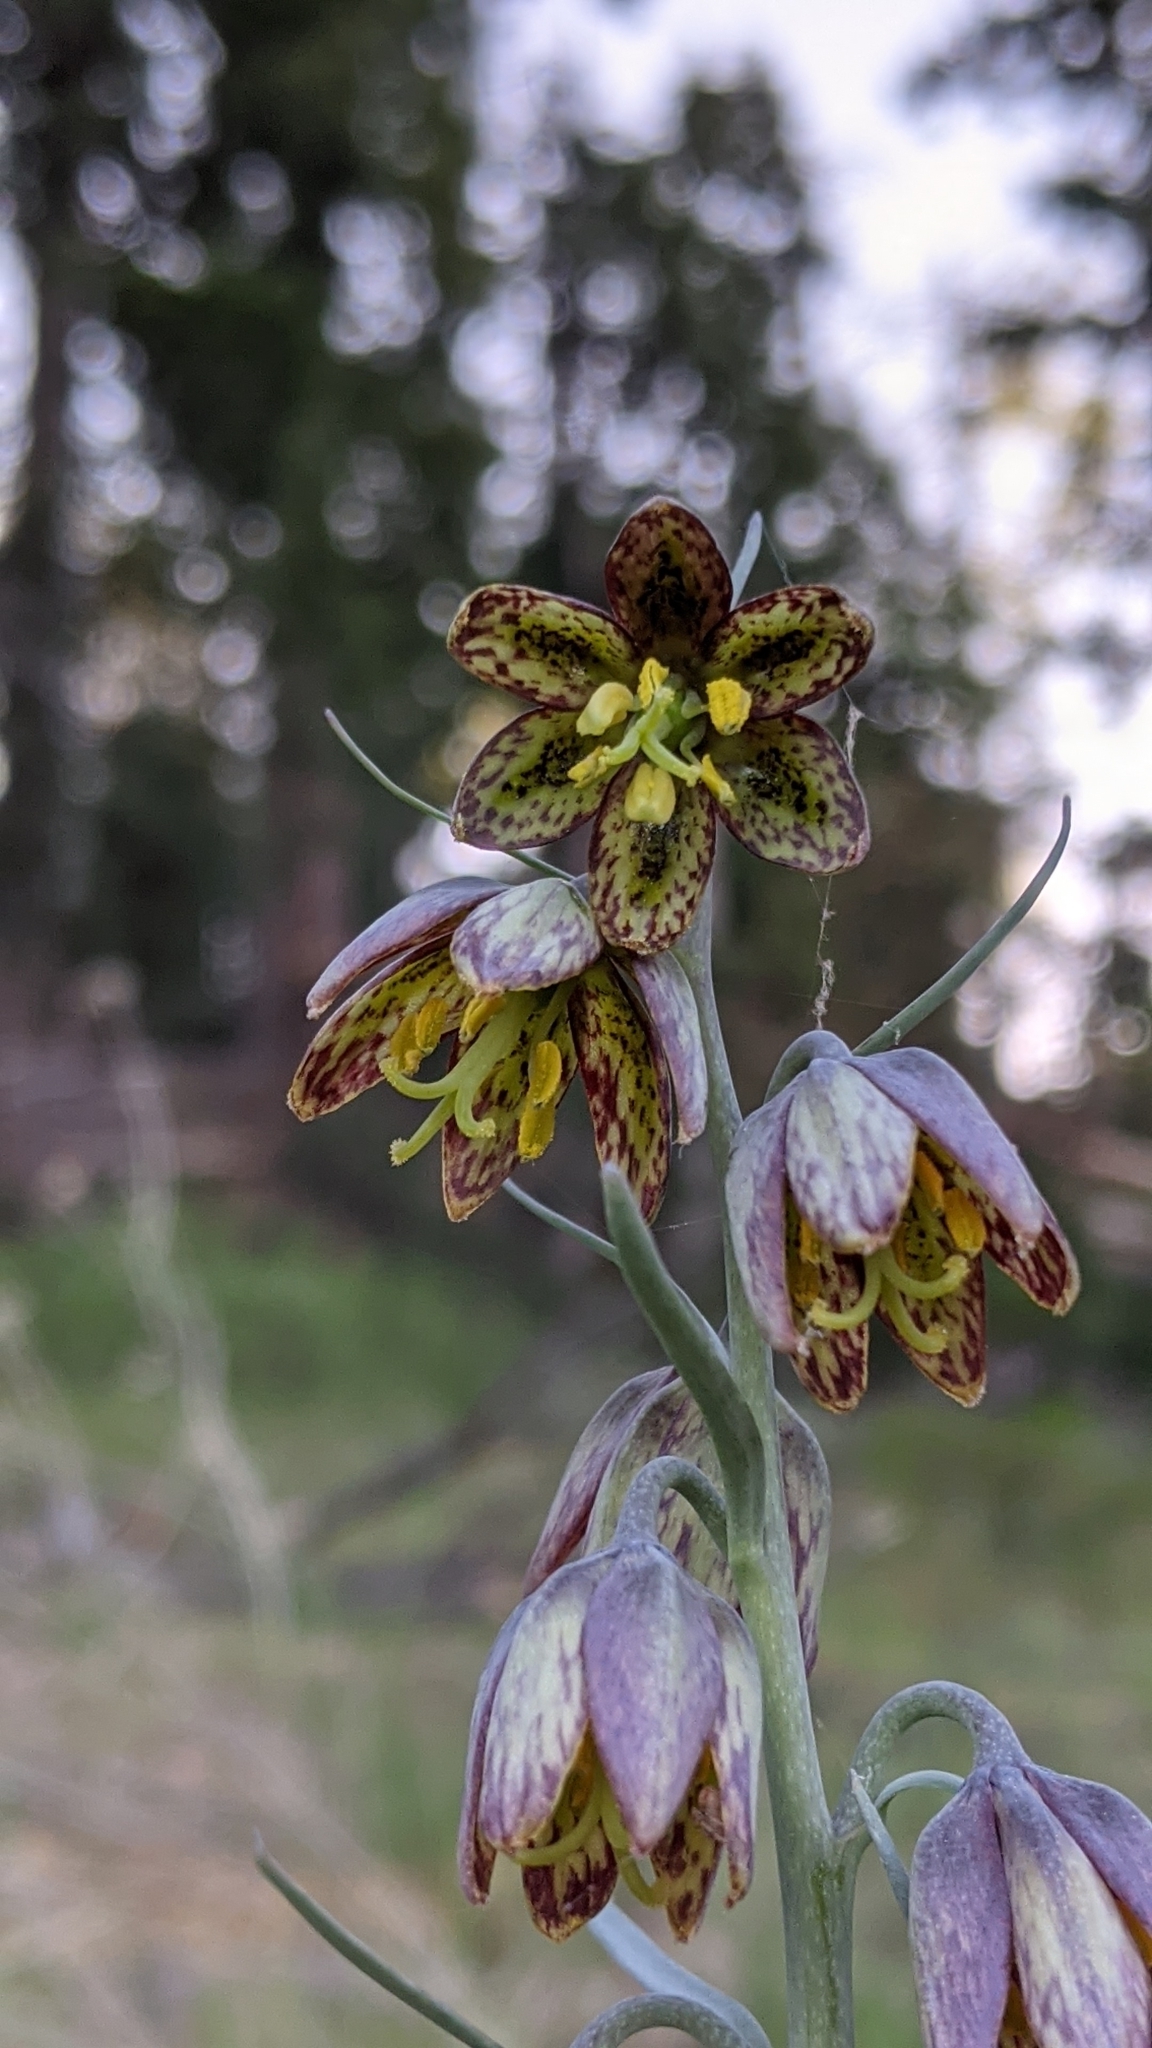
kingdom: Plantae
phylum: Tracheophyta
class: Liliopsida
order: Liliales
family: Liliaceae
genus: Fritillaria
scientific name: Fritillaria atropurpurea
